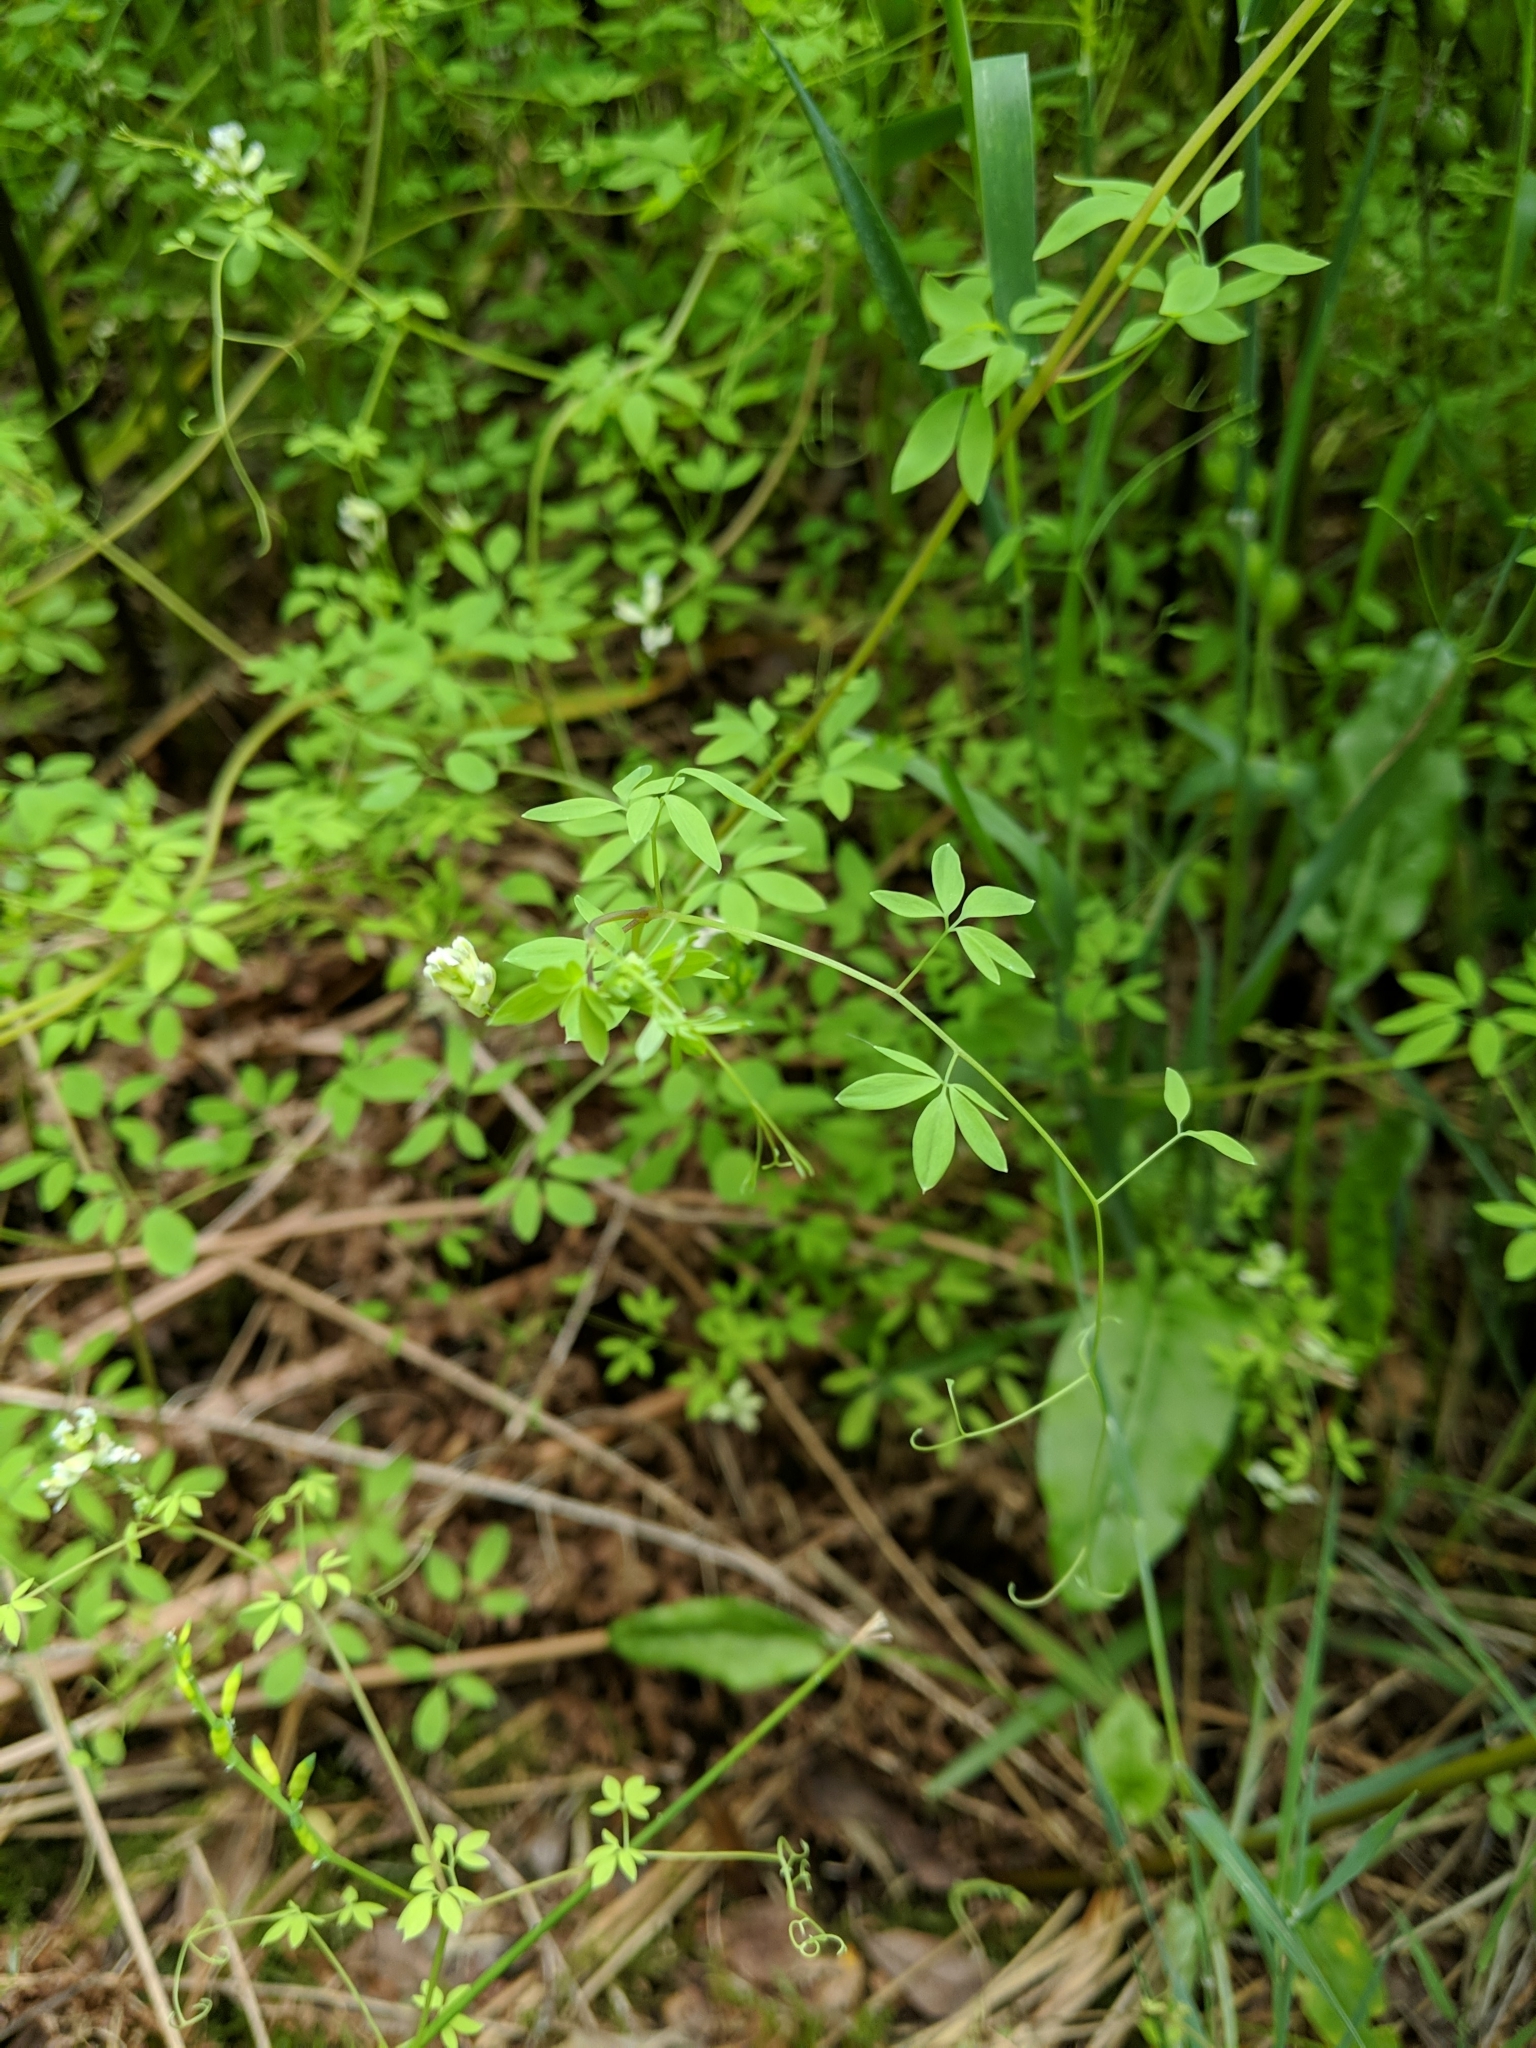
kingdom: Plantae
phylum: Tracheophyta
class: Magnoliopsida
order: Ranunculales
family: Papaveraceae
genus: Ceratocapnos
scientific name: Ceratocapnos claviculata
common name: Climbing corydalis
